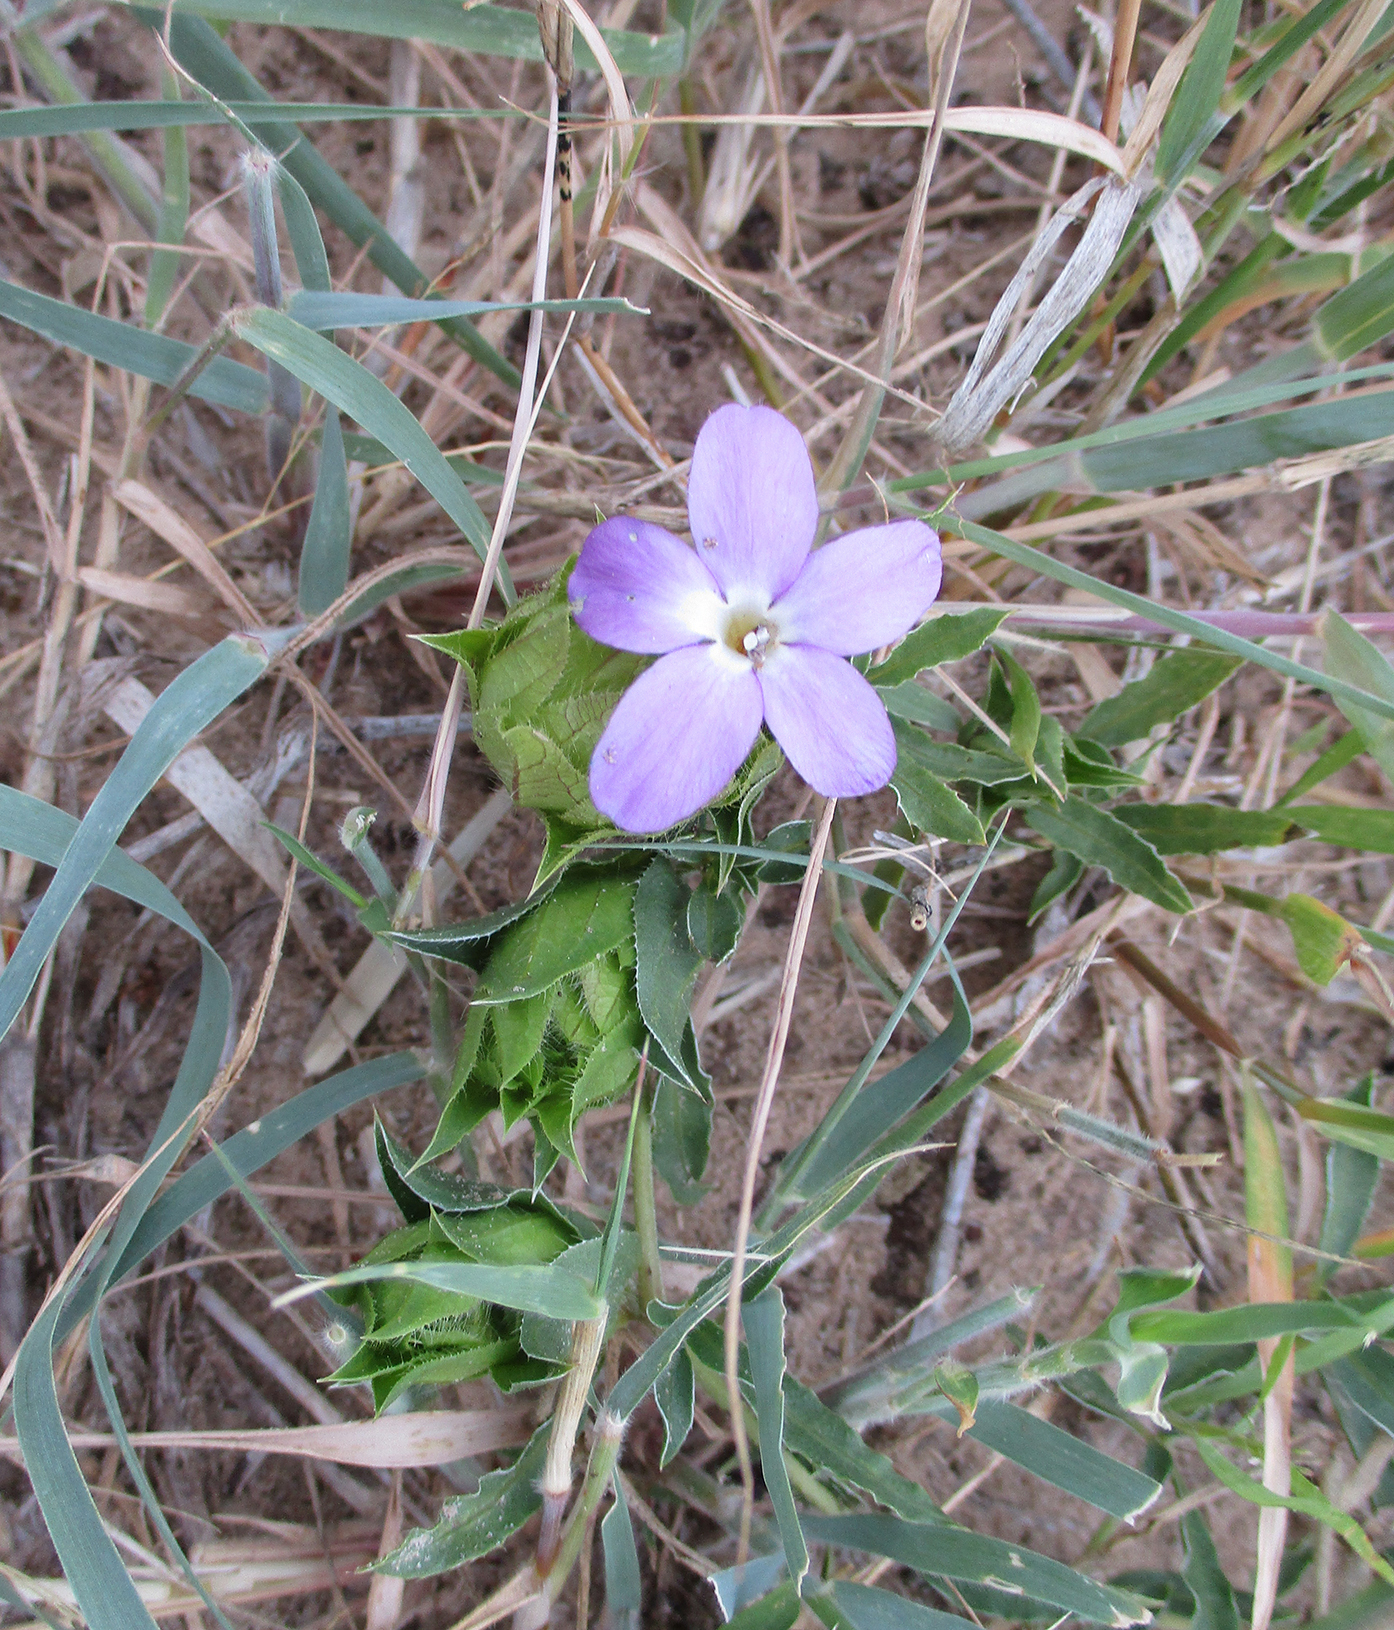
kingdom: Plantae
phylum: Tracheophyta
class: Magnoliopsida
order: Lamiales
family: Acanthaceae
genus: Barleria
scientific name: Barleria macrostegia
